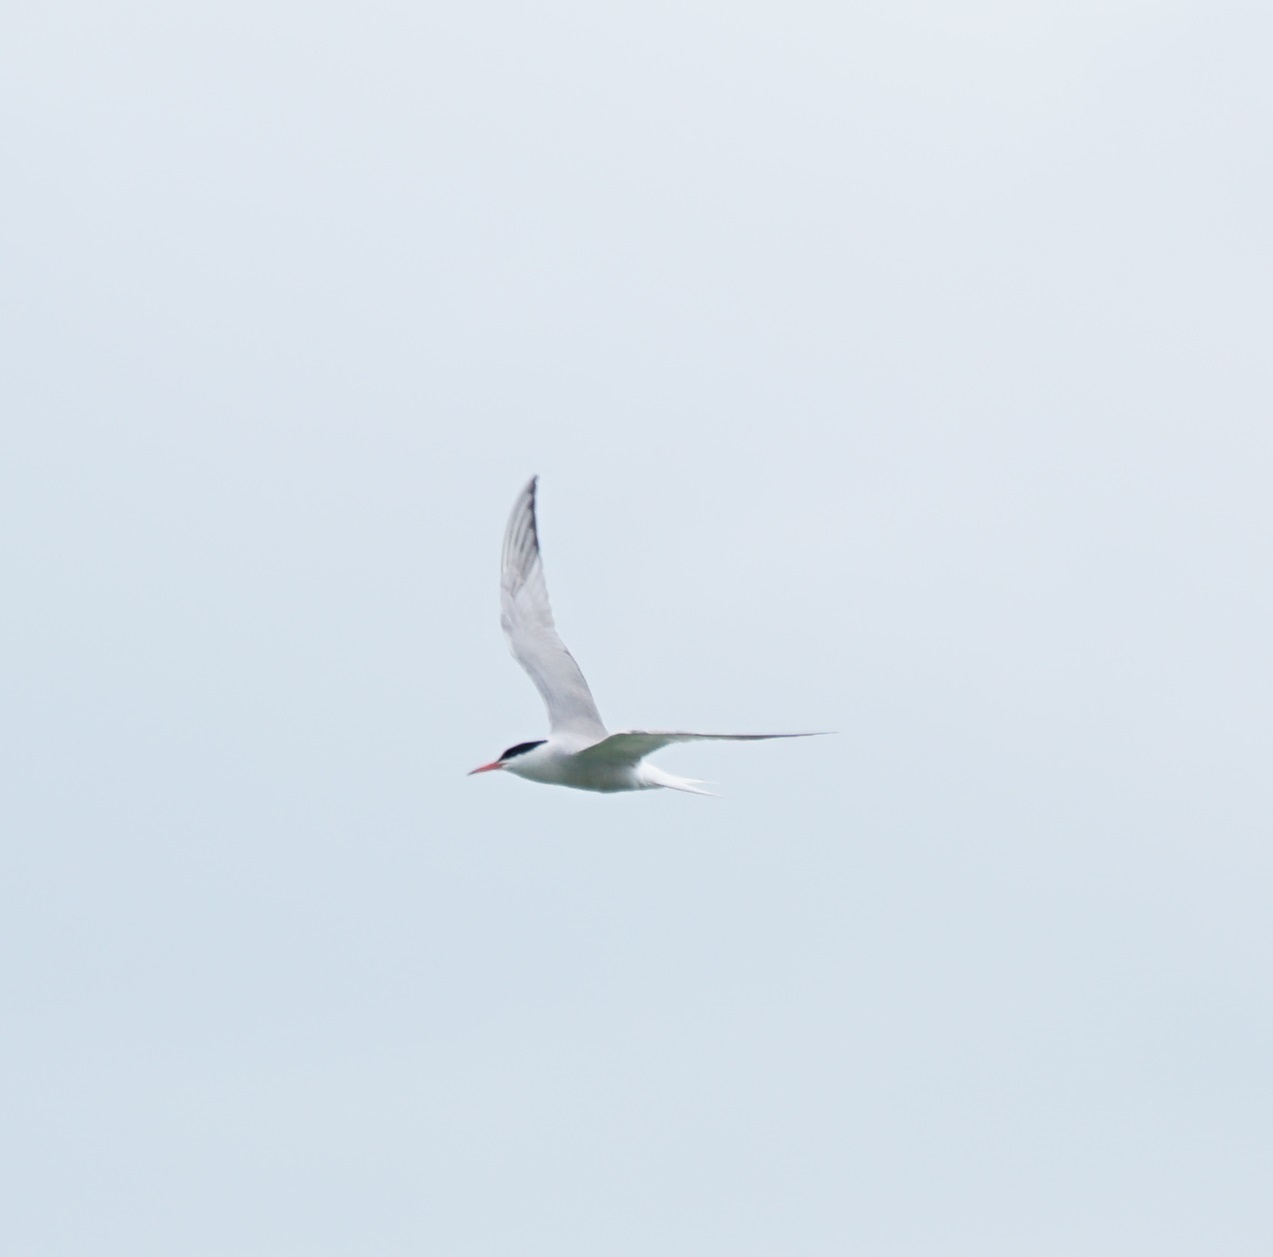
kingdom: Animalia
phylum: Chordata
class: Aves
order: Charadriiformes
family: Laridae
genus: Sterna
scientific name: Sterna hirundo
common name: Common tern
